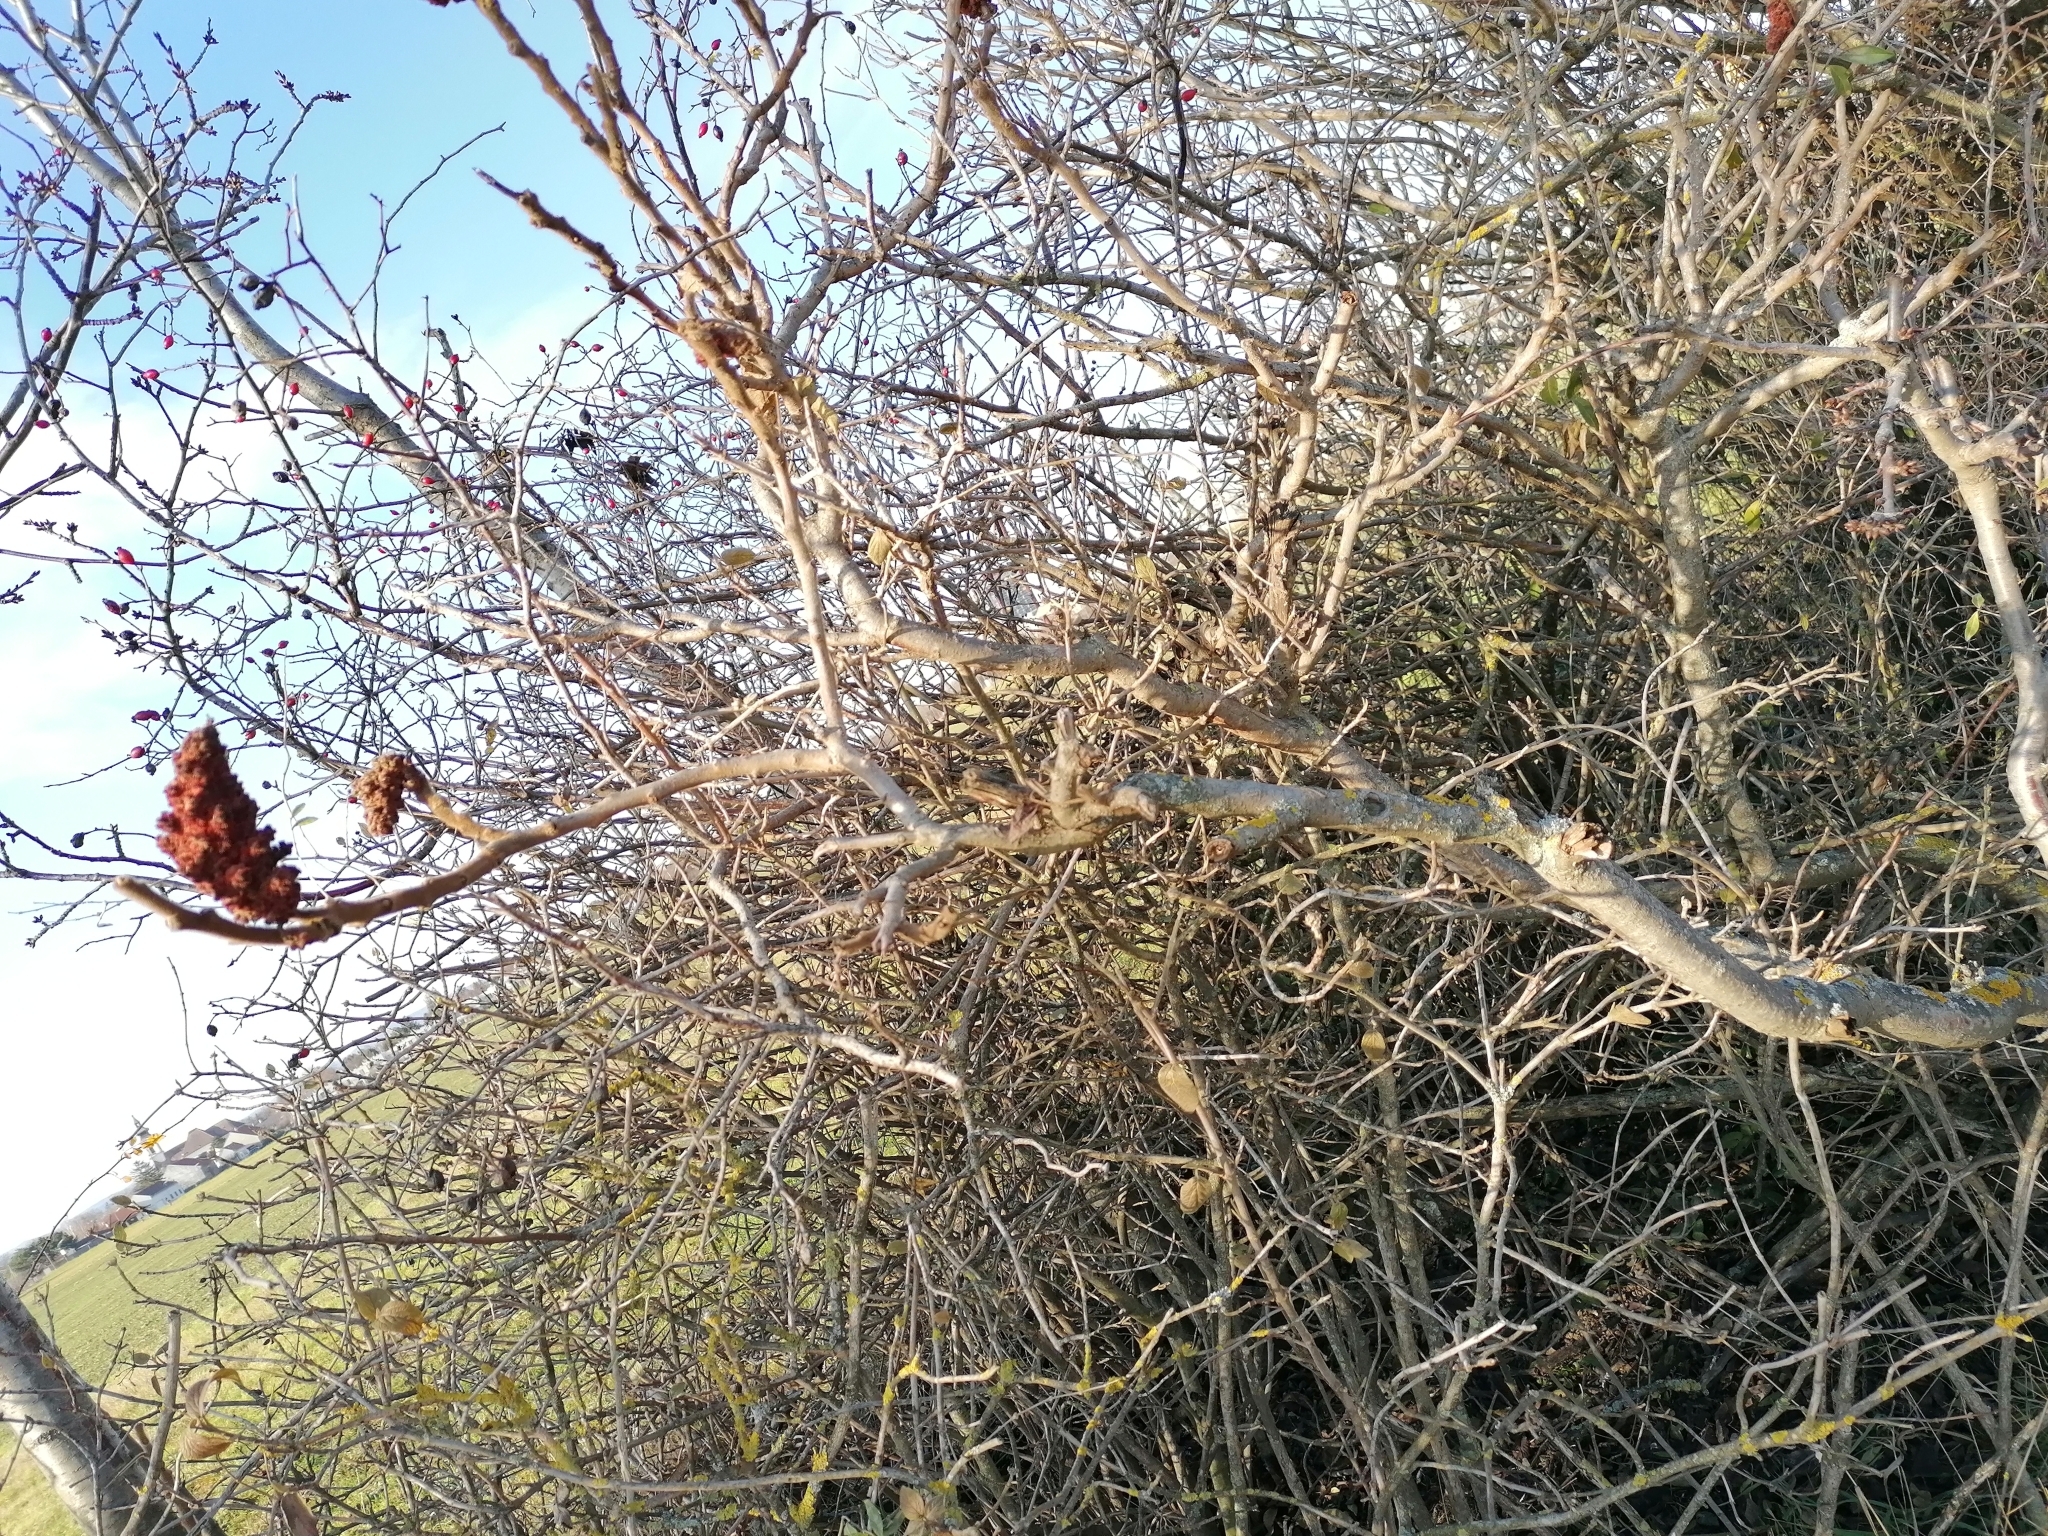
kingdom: Plantae
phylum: Tracheophyta
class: Magnoliopsida
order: Sapindales
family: Anacardiaceae
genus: Rhus
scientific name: Rhus typhina
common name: Staghorn sumac
